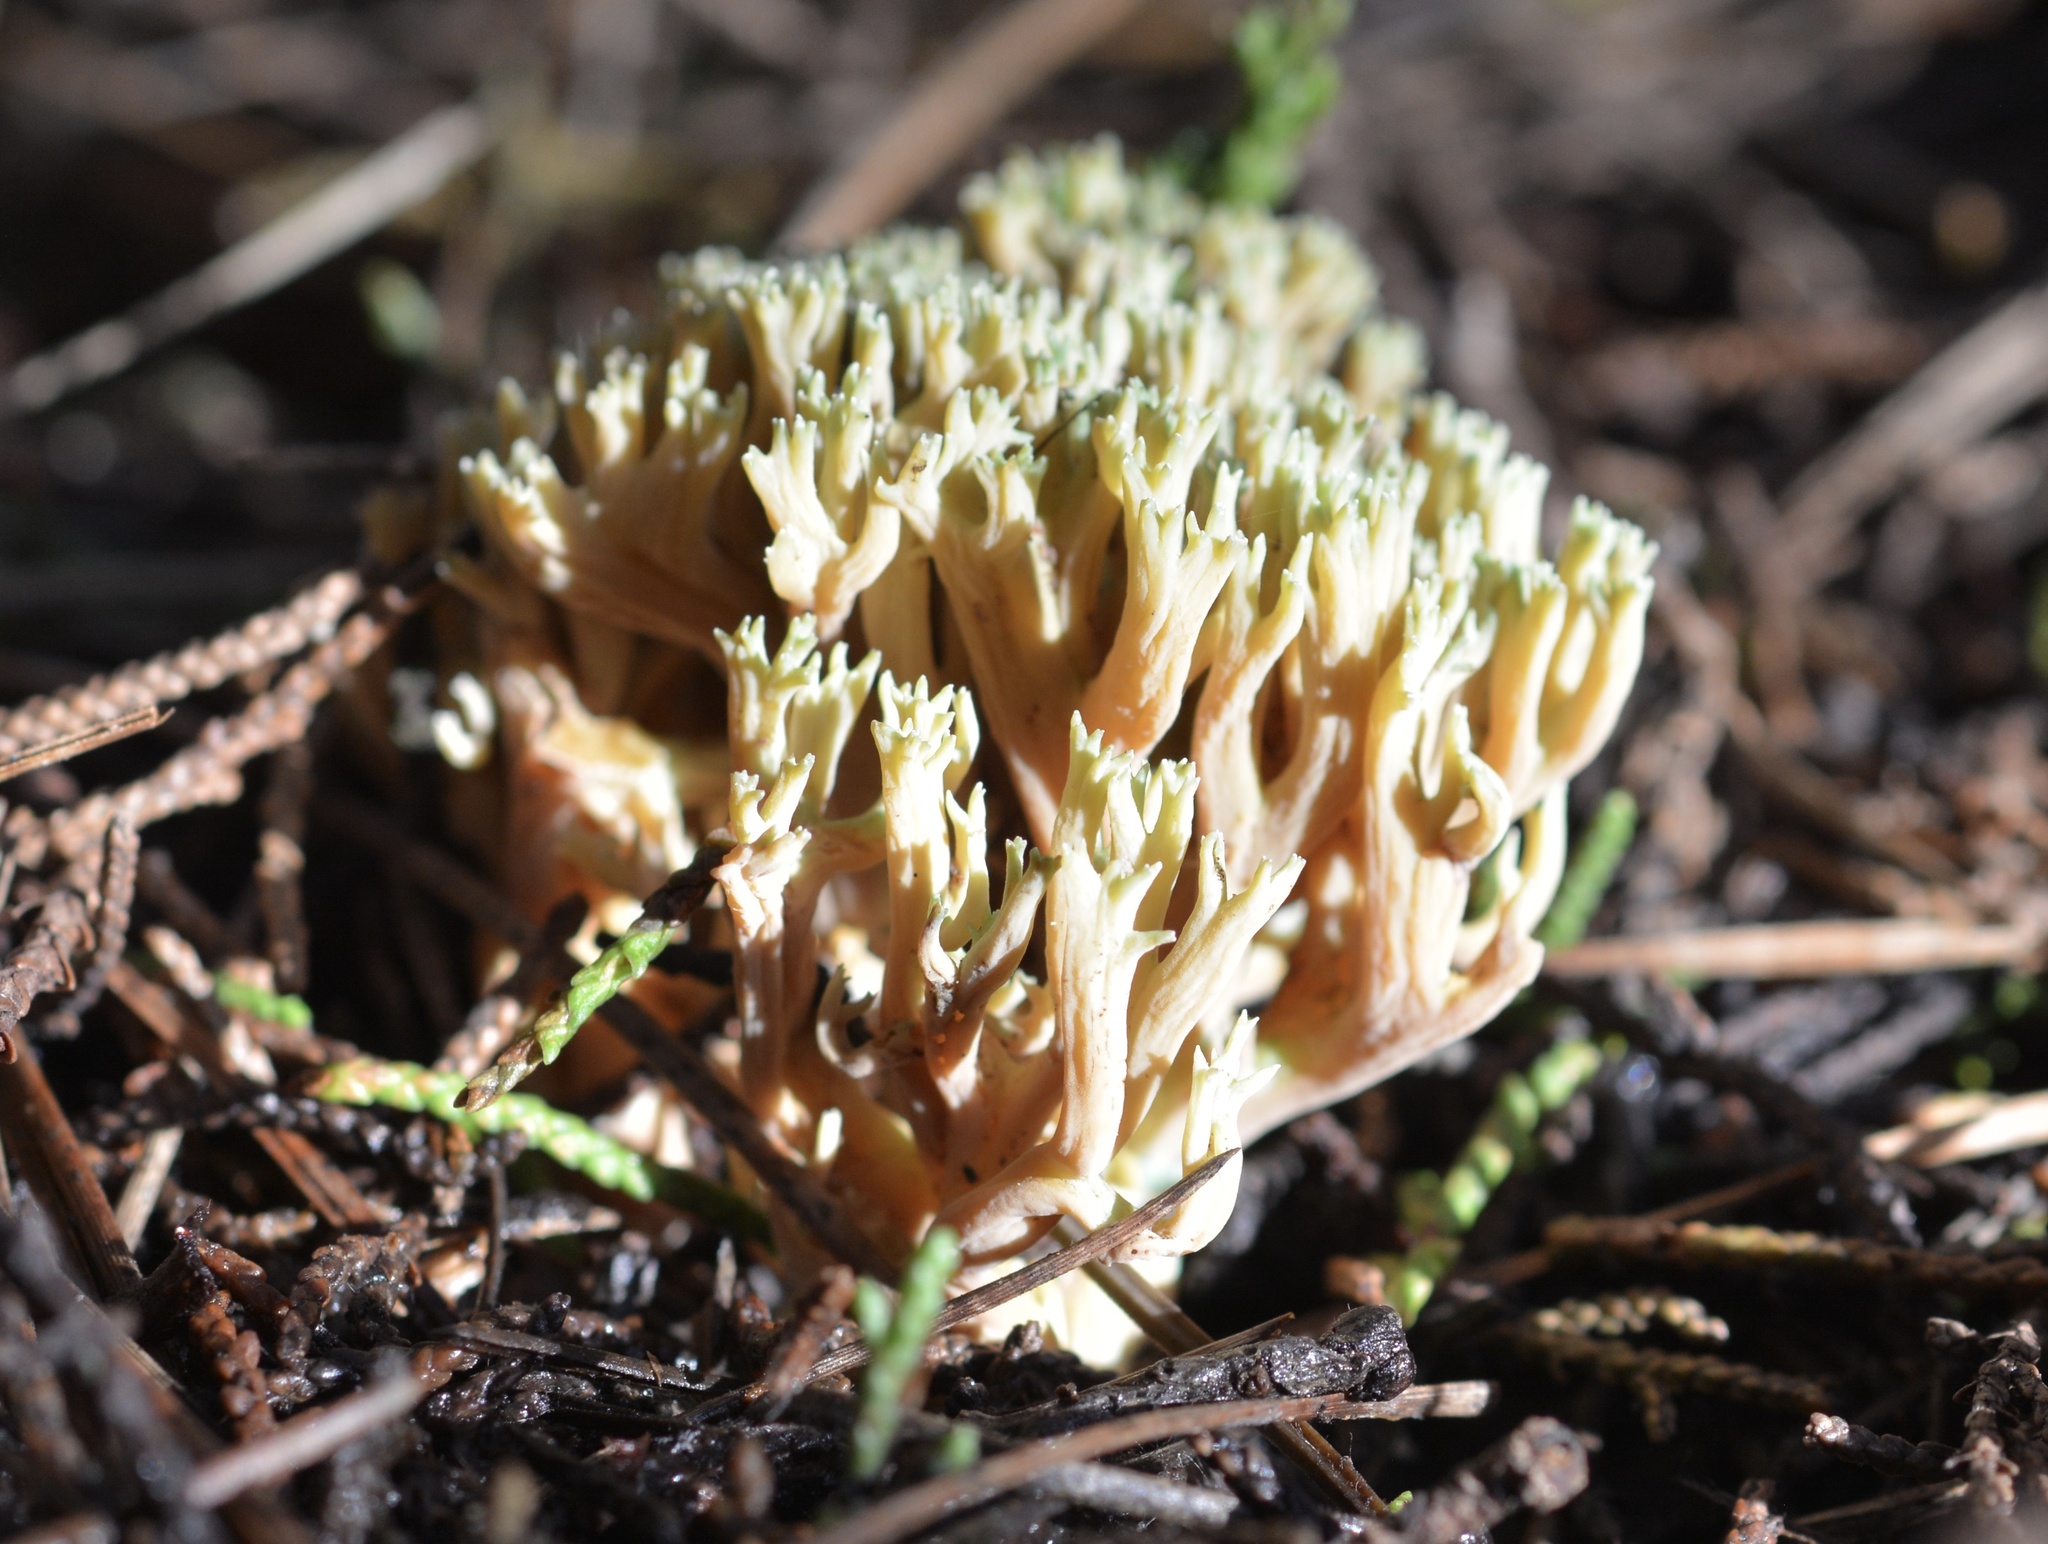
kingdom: Fungi
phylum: Basidiomycota
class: Agaricomycetes
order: Gomphales
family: Gomphaceae
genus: Ramaria
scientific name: Ramaria apiculata
